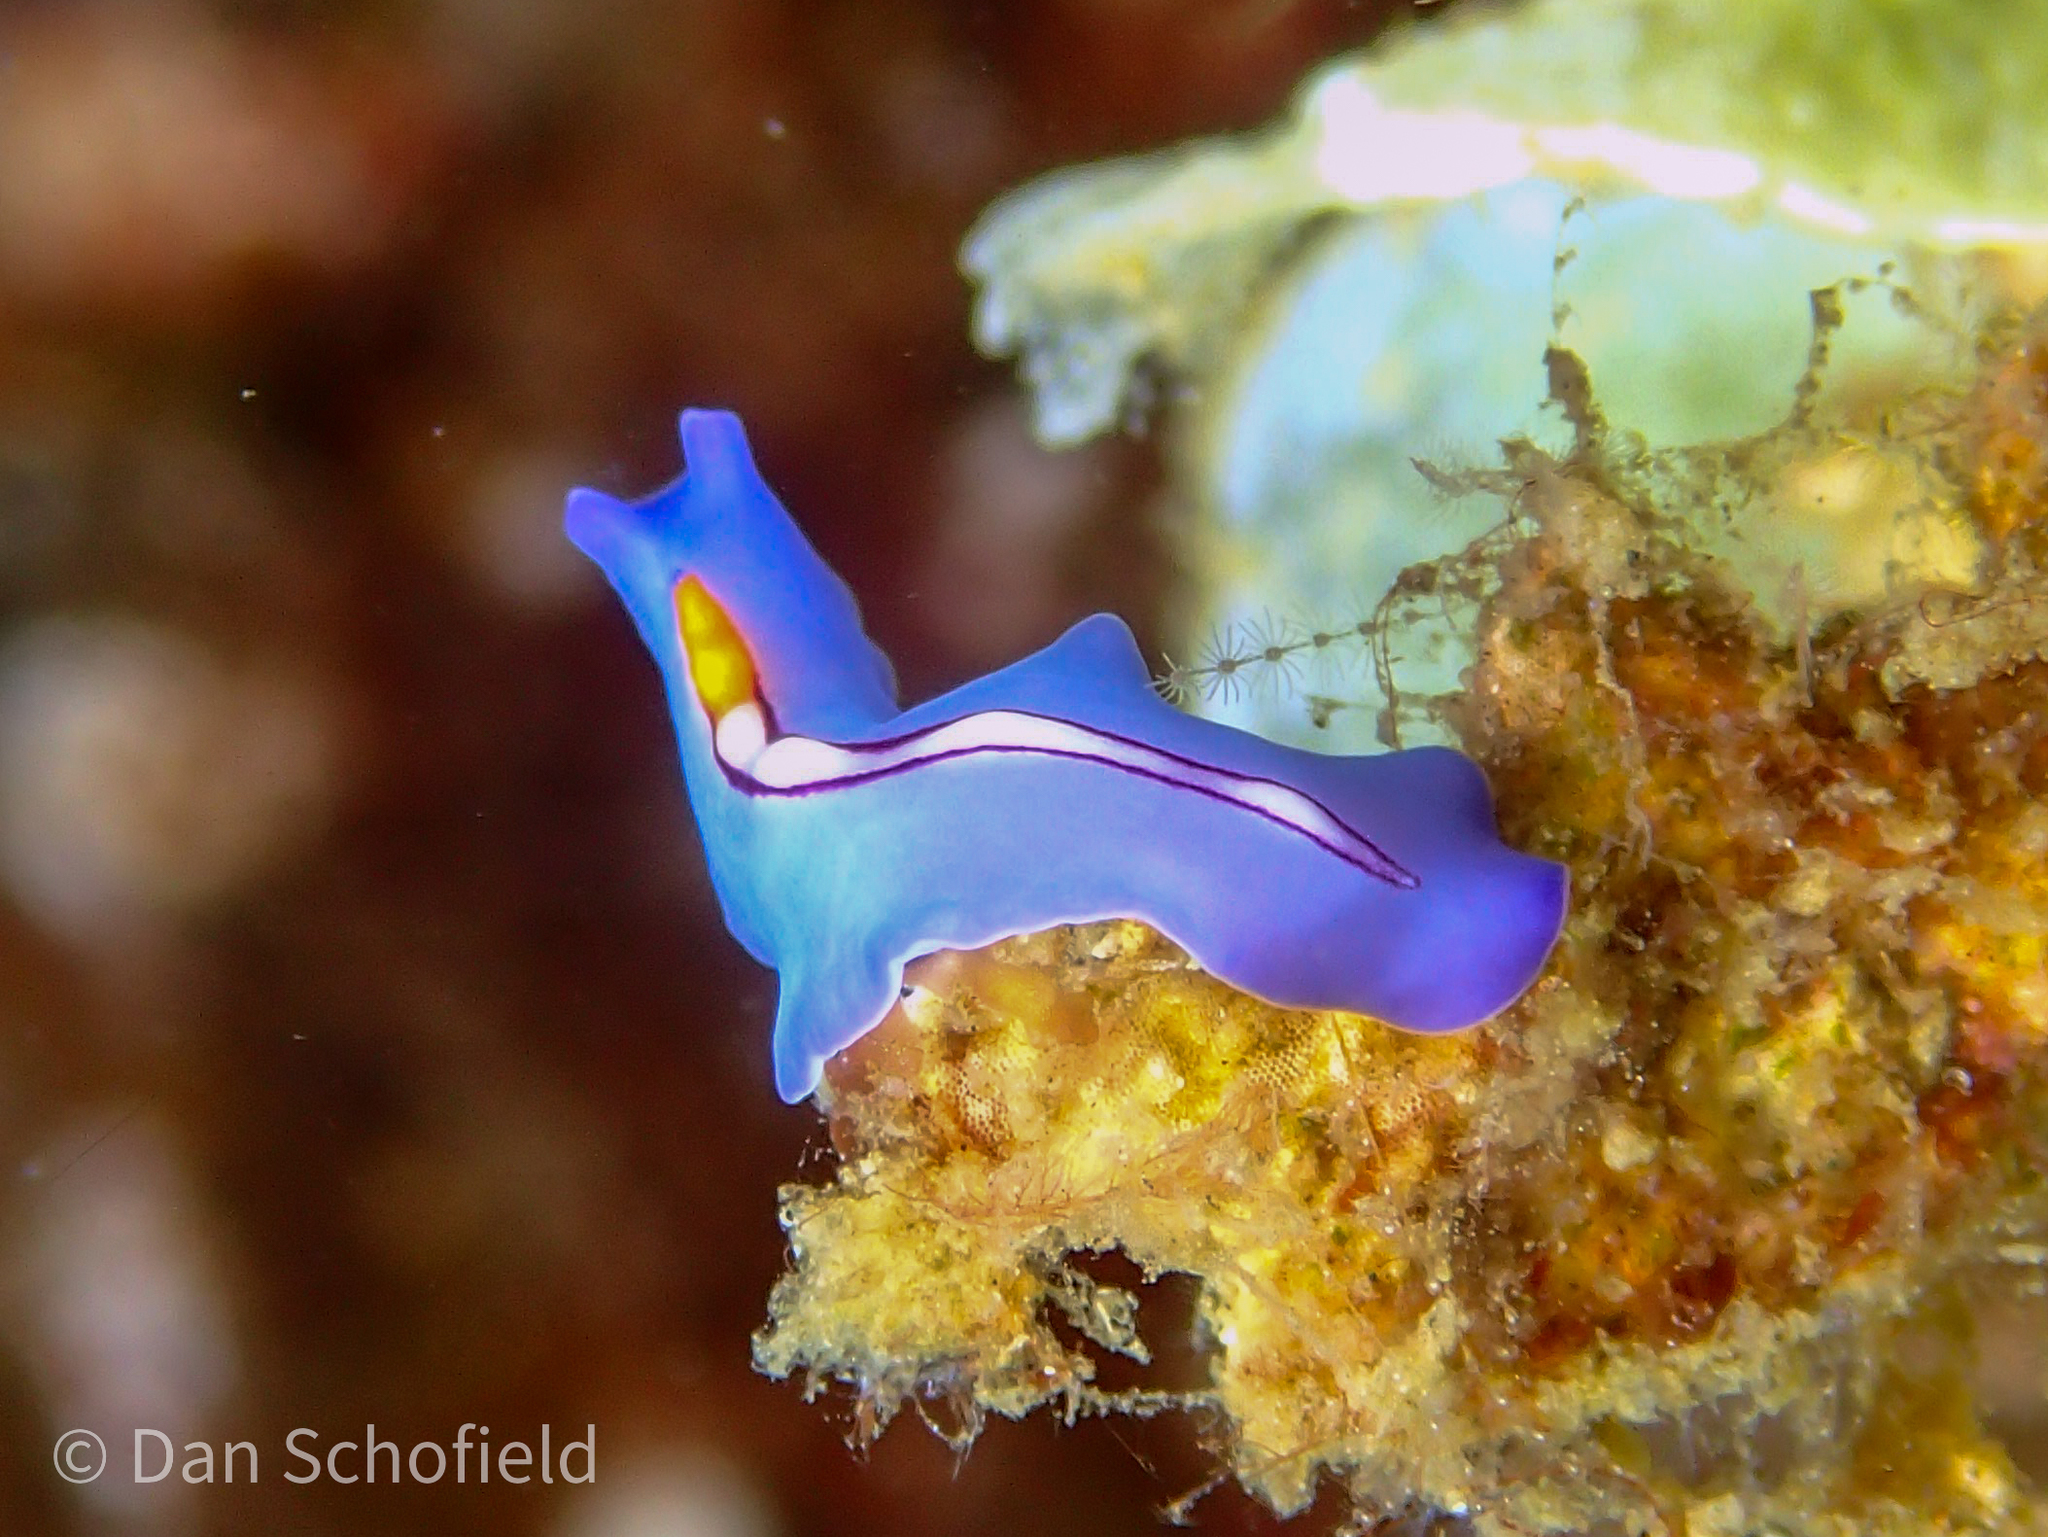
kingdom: Animalia
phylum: Platyhelminthes
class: Turbellaria
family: Pseudocerotidae
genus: Pseudoceros
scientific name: Pseudoceros liparus
